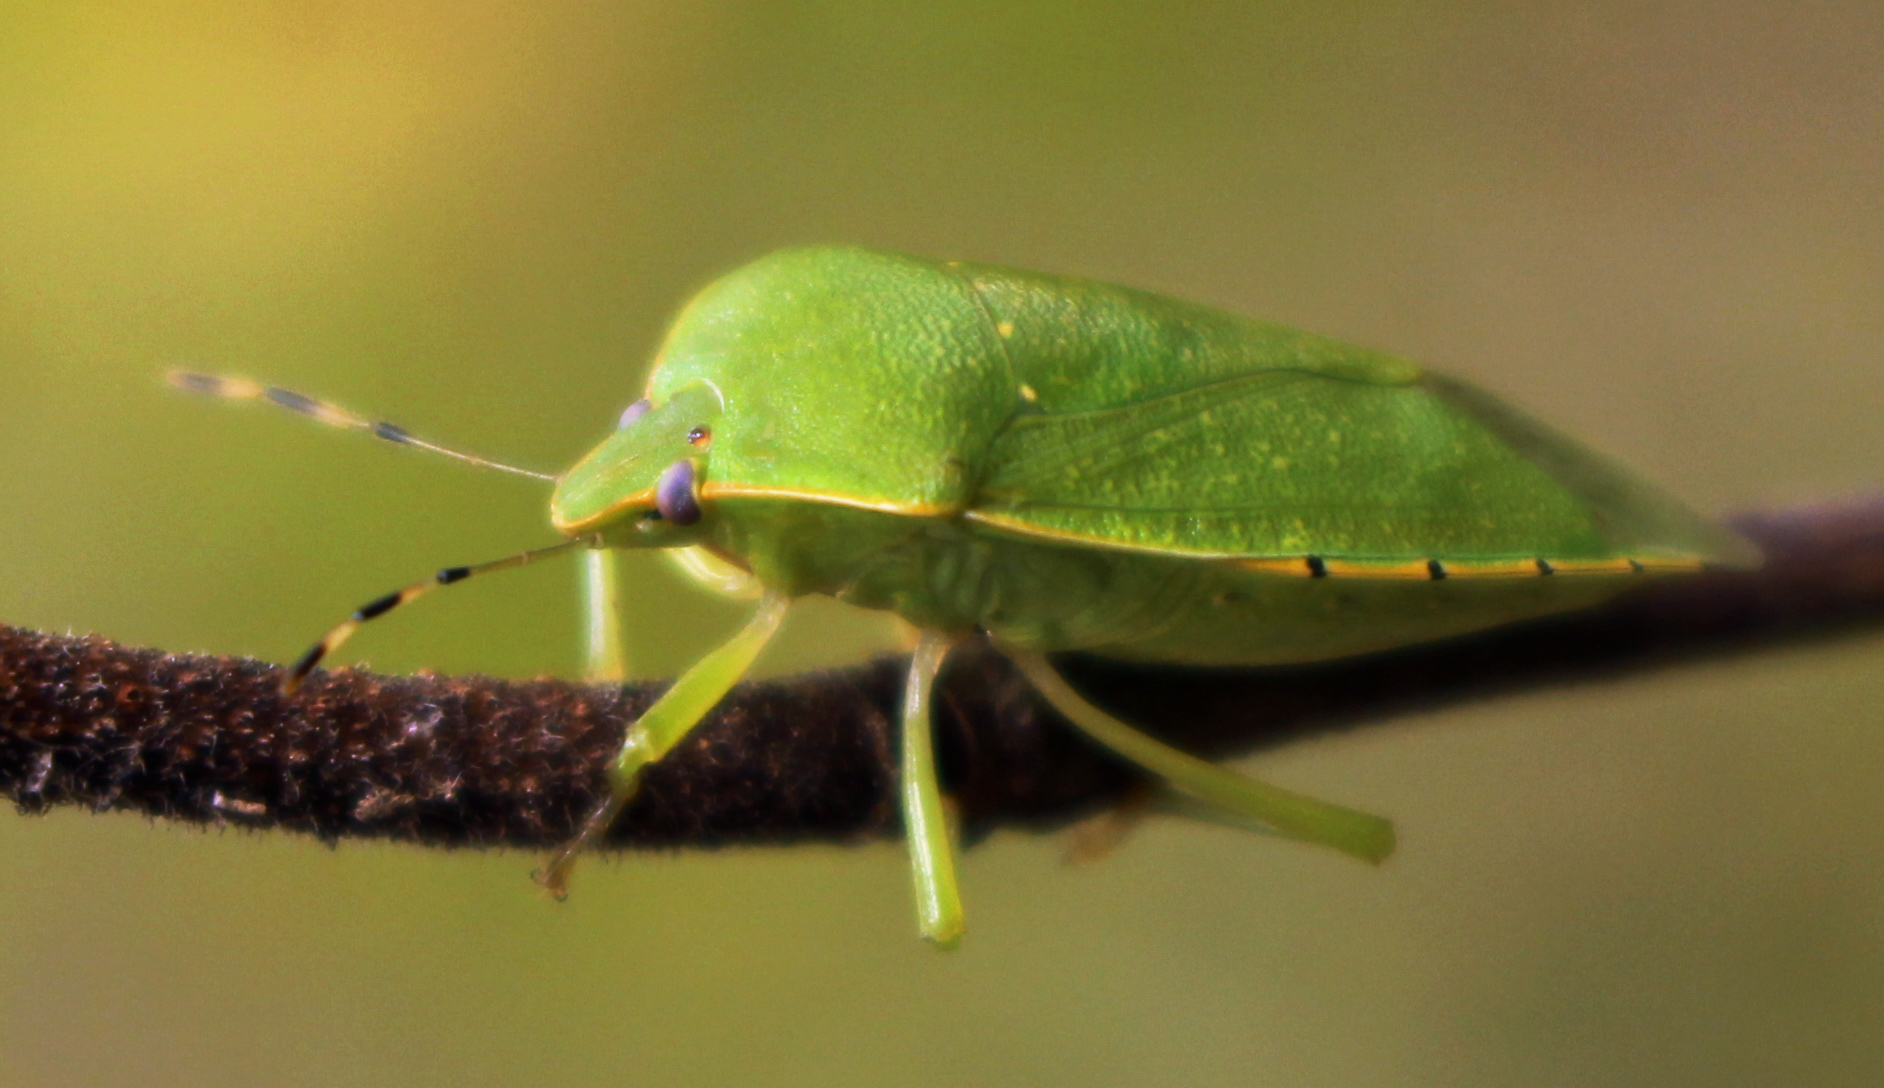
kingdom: Animalia
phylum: Arthropoda
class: Insecta
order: Hemiptera
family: Pentatomidae
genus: Chinavia
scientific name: Chinavia hilaris
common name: Green stink bug
